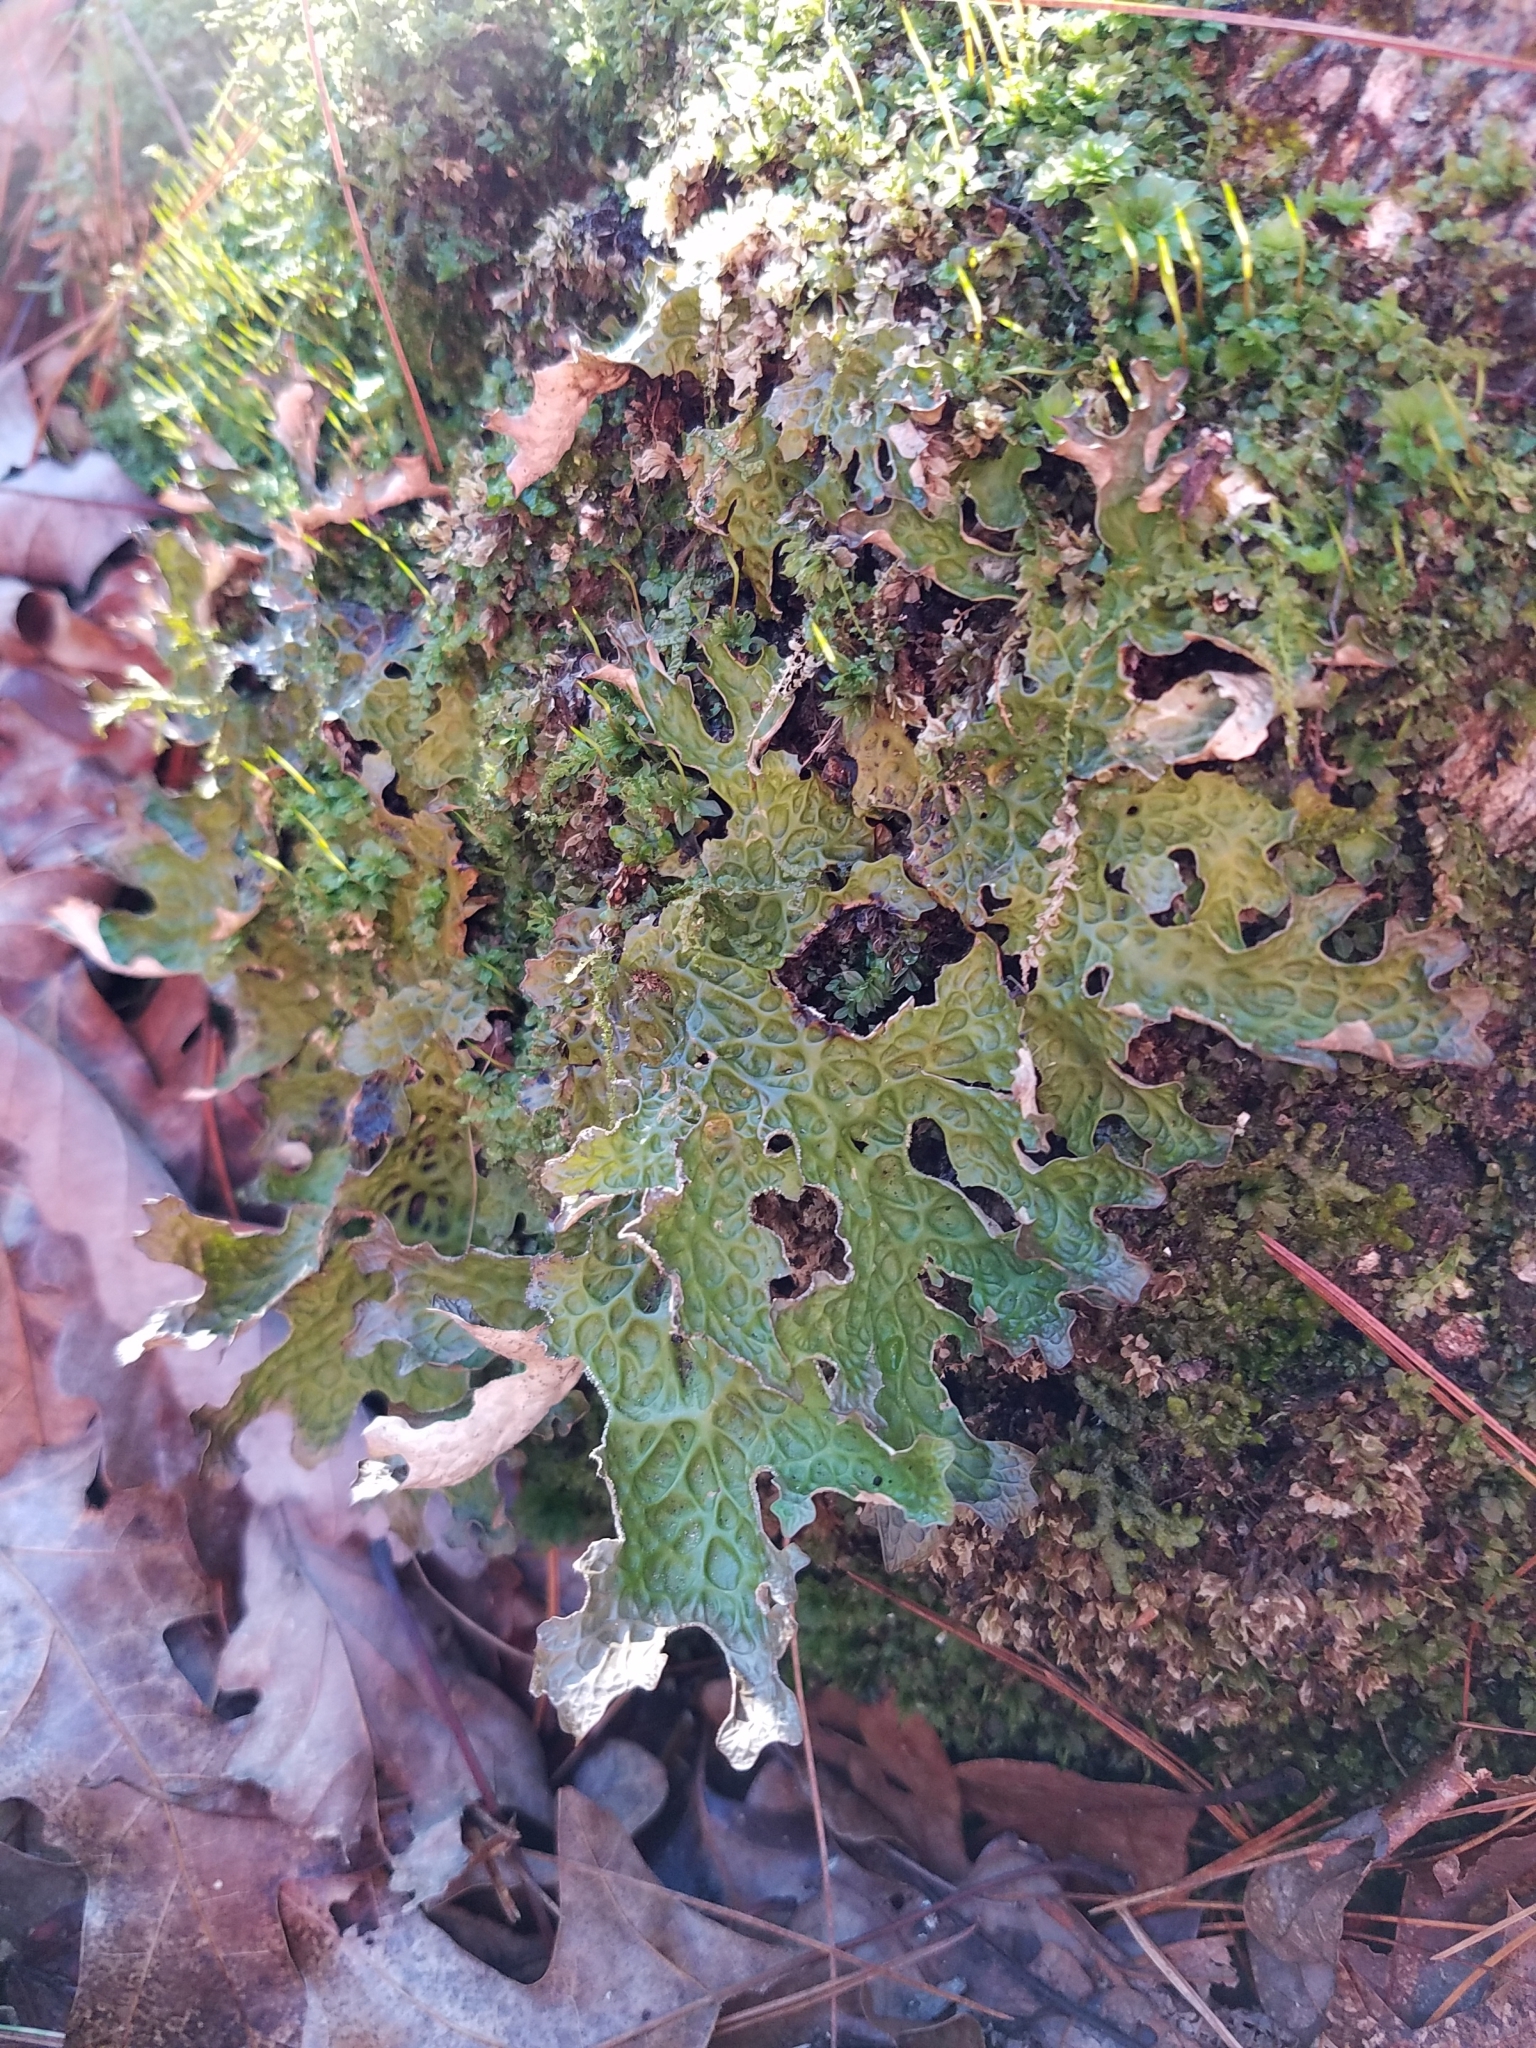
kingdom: Fungi
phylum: Ascomycota
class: Lecanoromycetes
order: Peltigerales
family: Lobariaceae
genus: Lobaria
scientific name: Lobaria pulmonaria
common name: Lungwort
